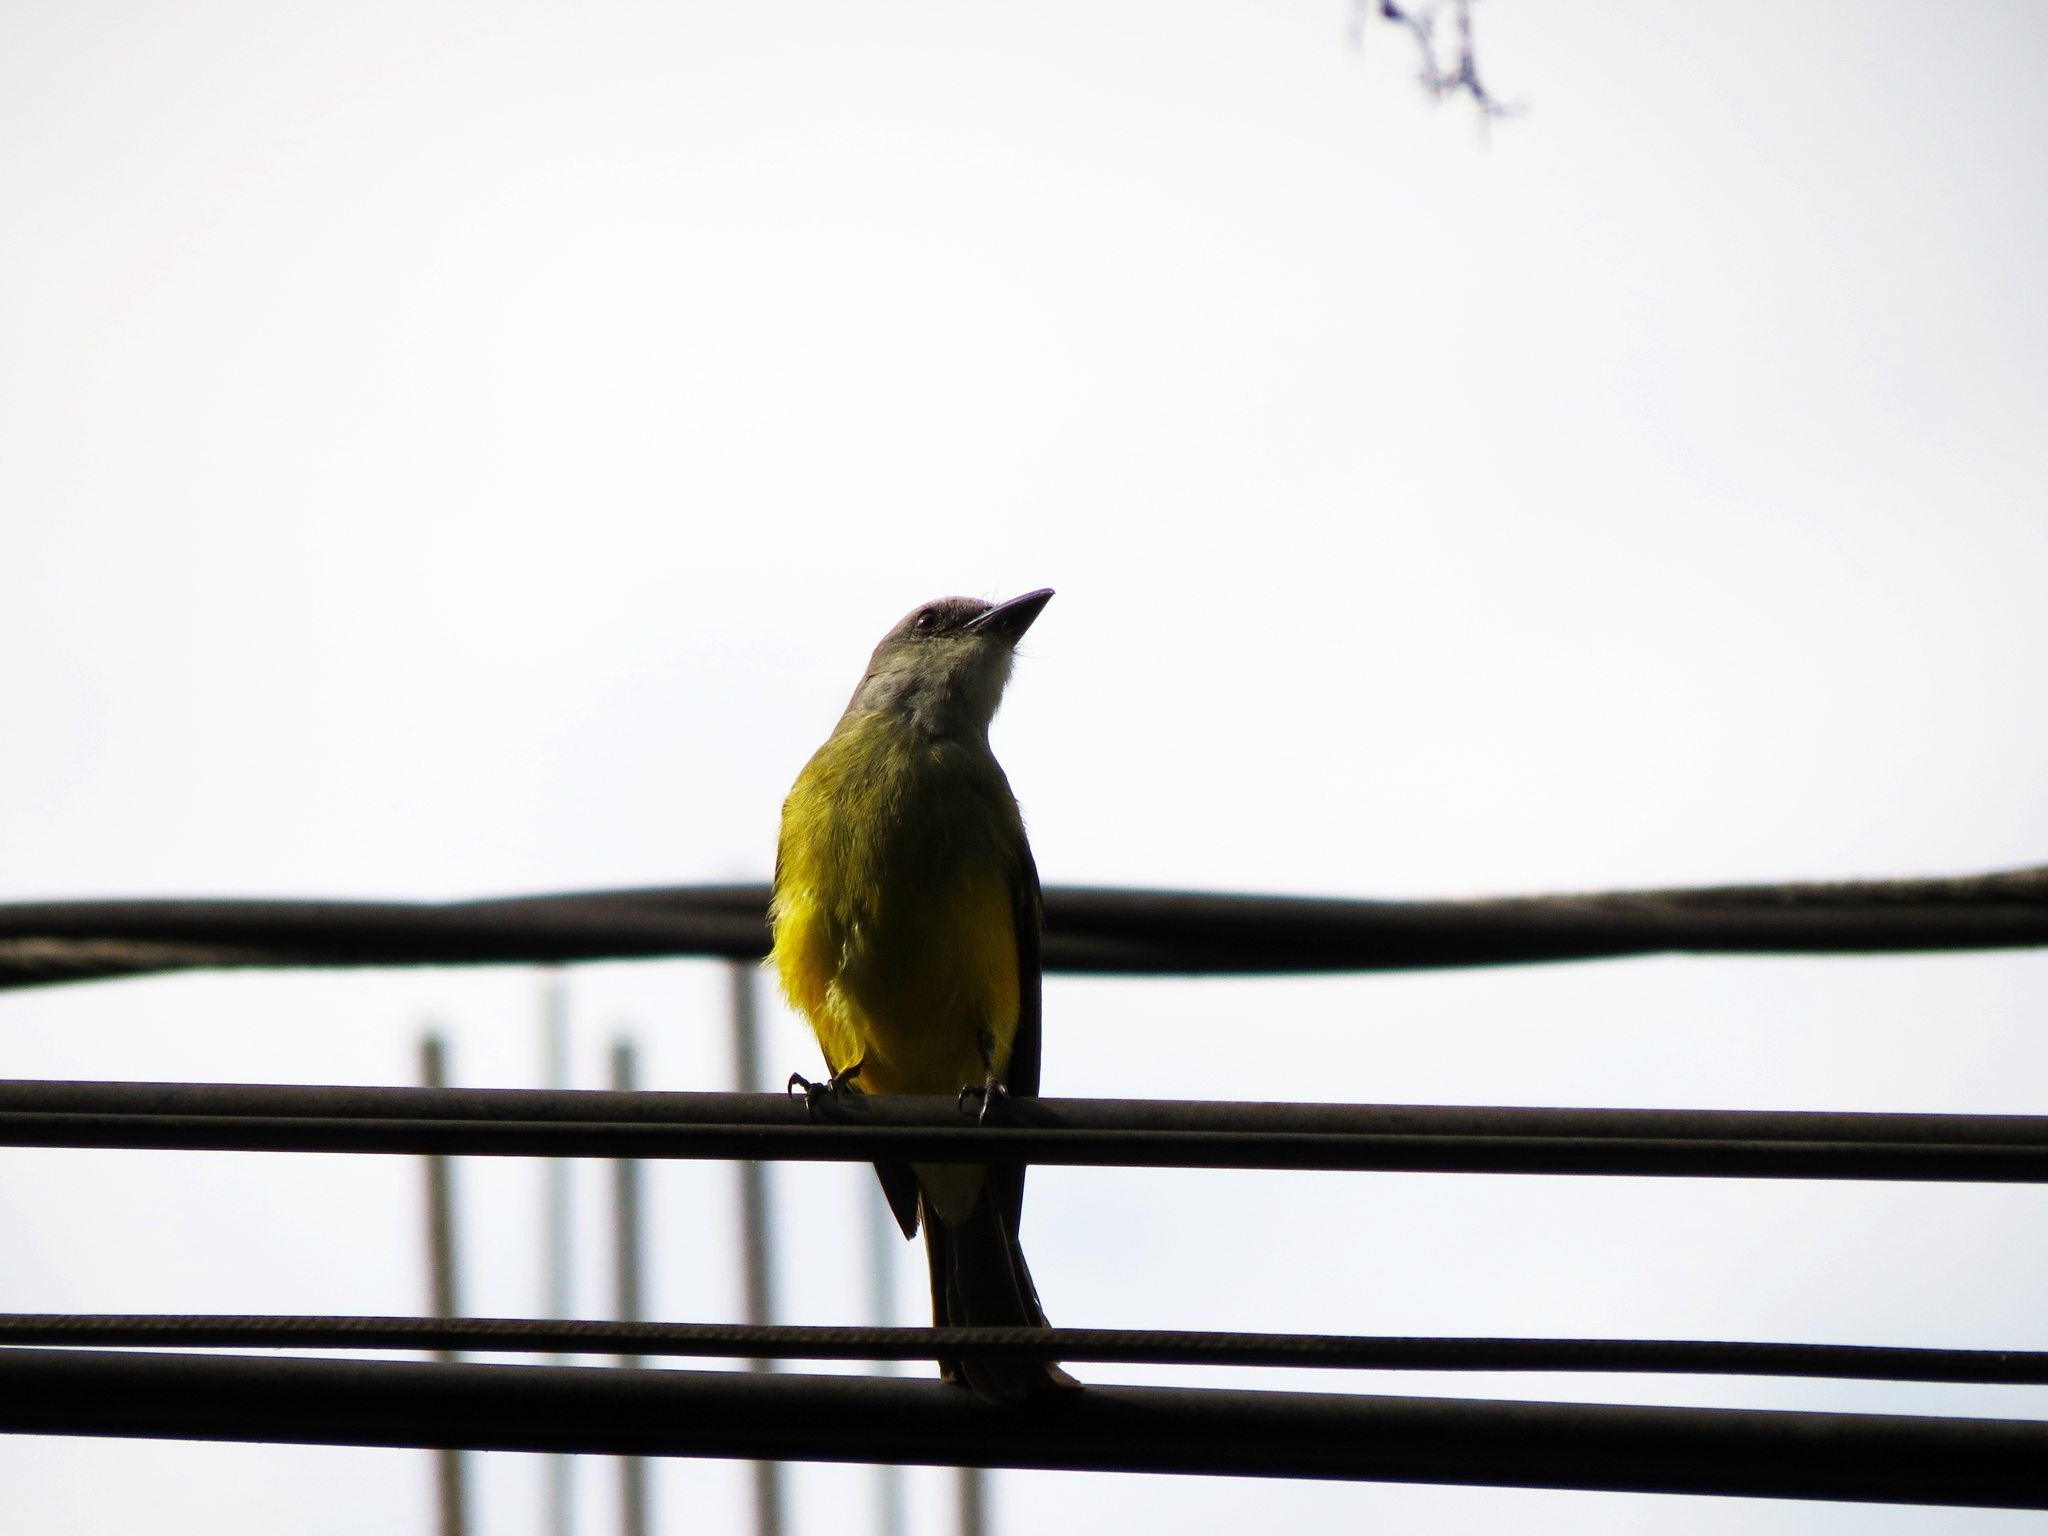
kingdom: Animalia
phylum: Chordata
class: Aves
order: Passeriformes
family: Tyrannidae
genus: Tyrannus
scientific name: Tyrannus melancholicus
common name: Tropical kingbird
